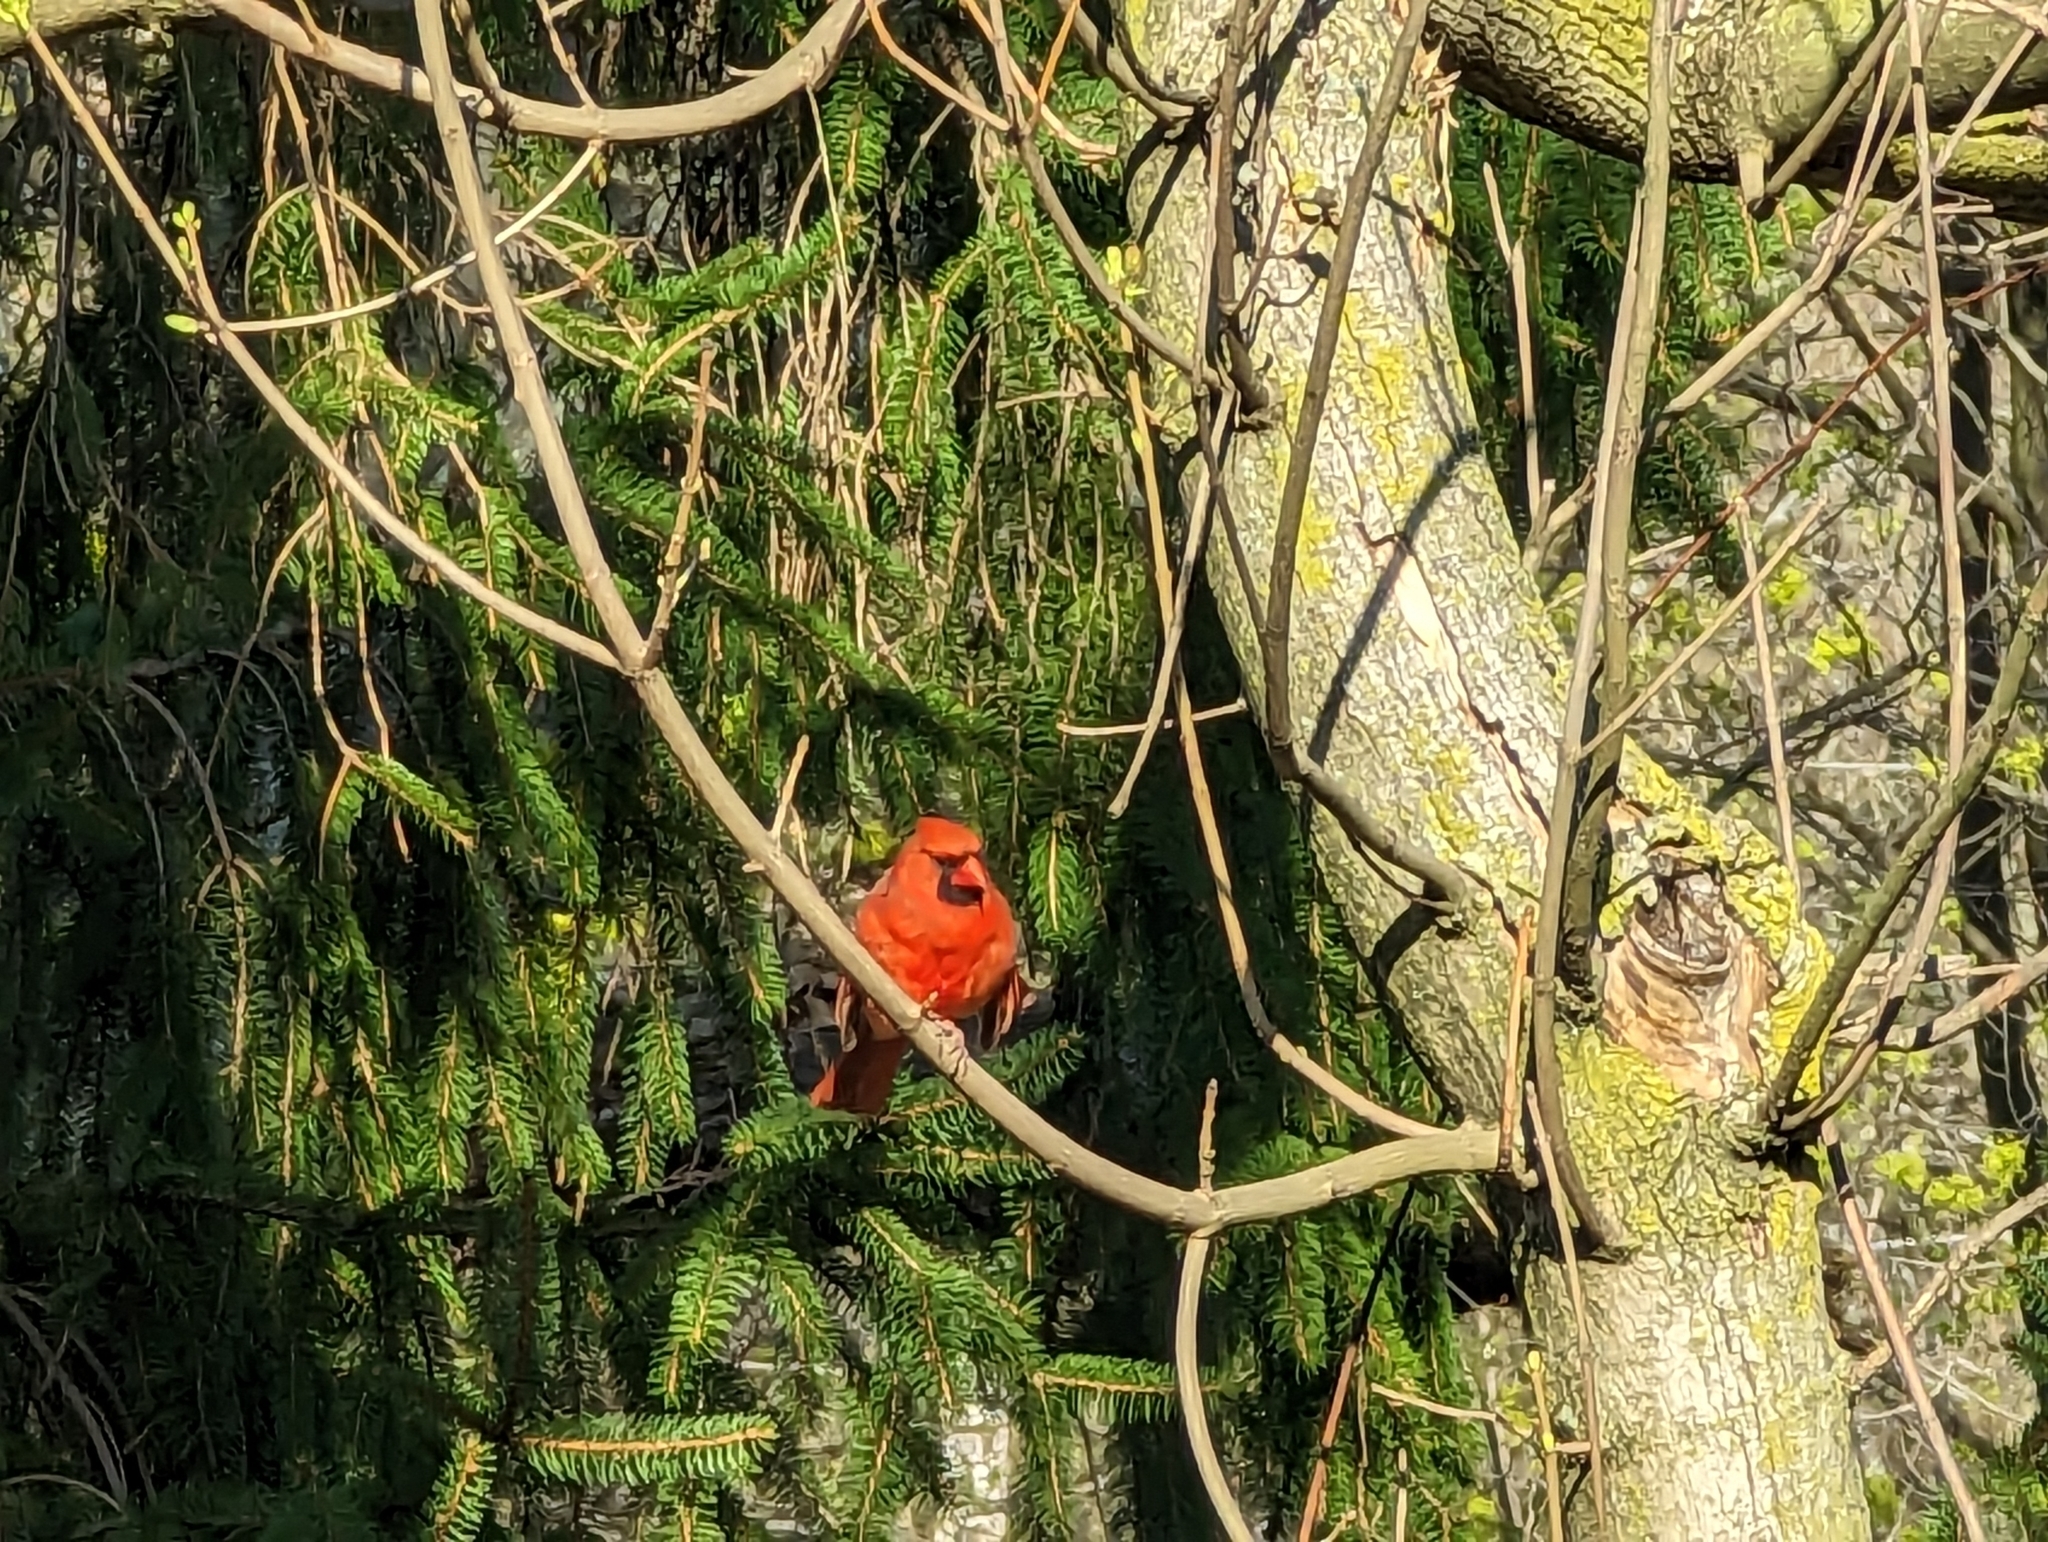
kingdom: Animalia
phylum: Chordata
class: Aves
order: Passeriformes
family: Cardinalidae
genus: Cardinalis
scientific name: Cardinalis cardinalis
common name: Northern cardinal
